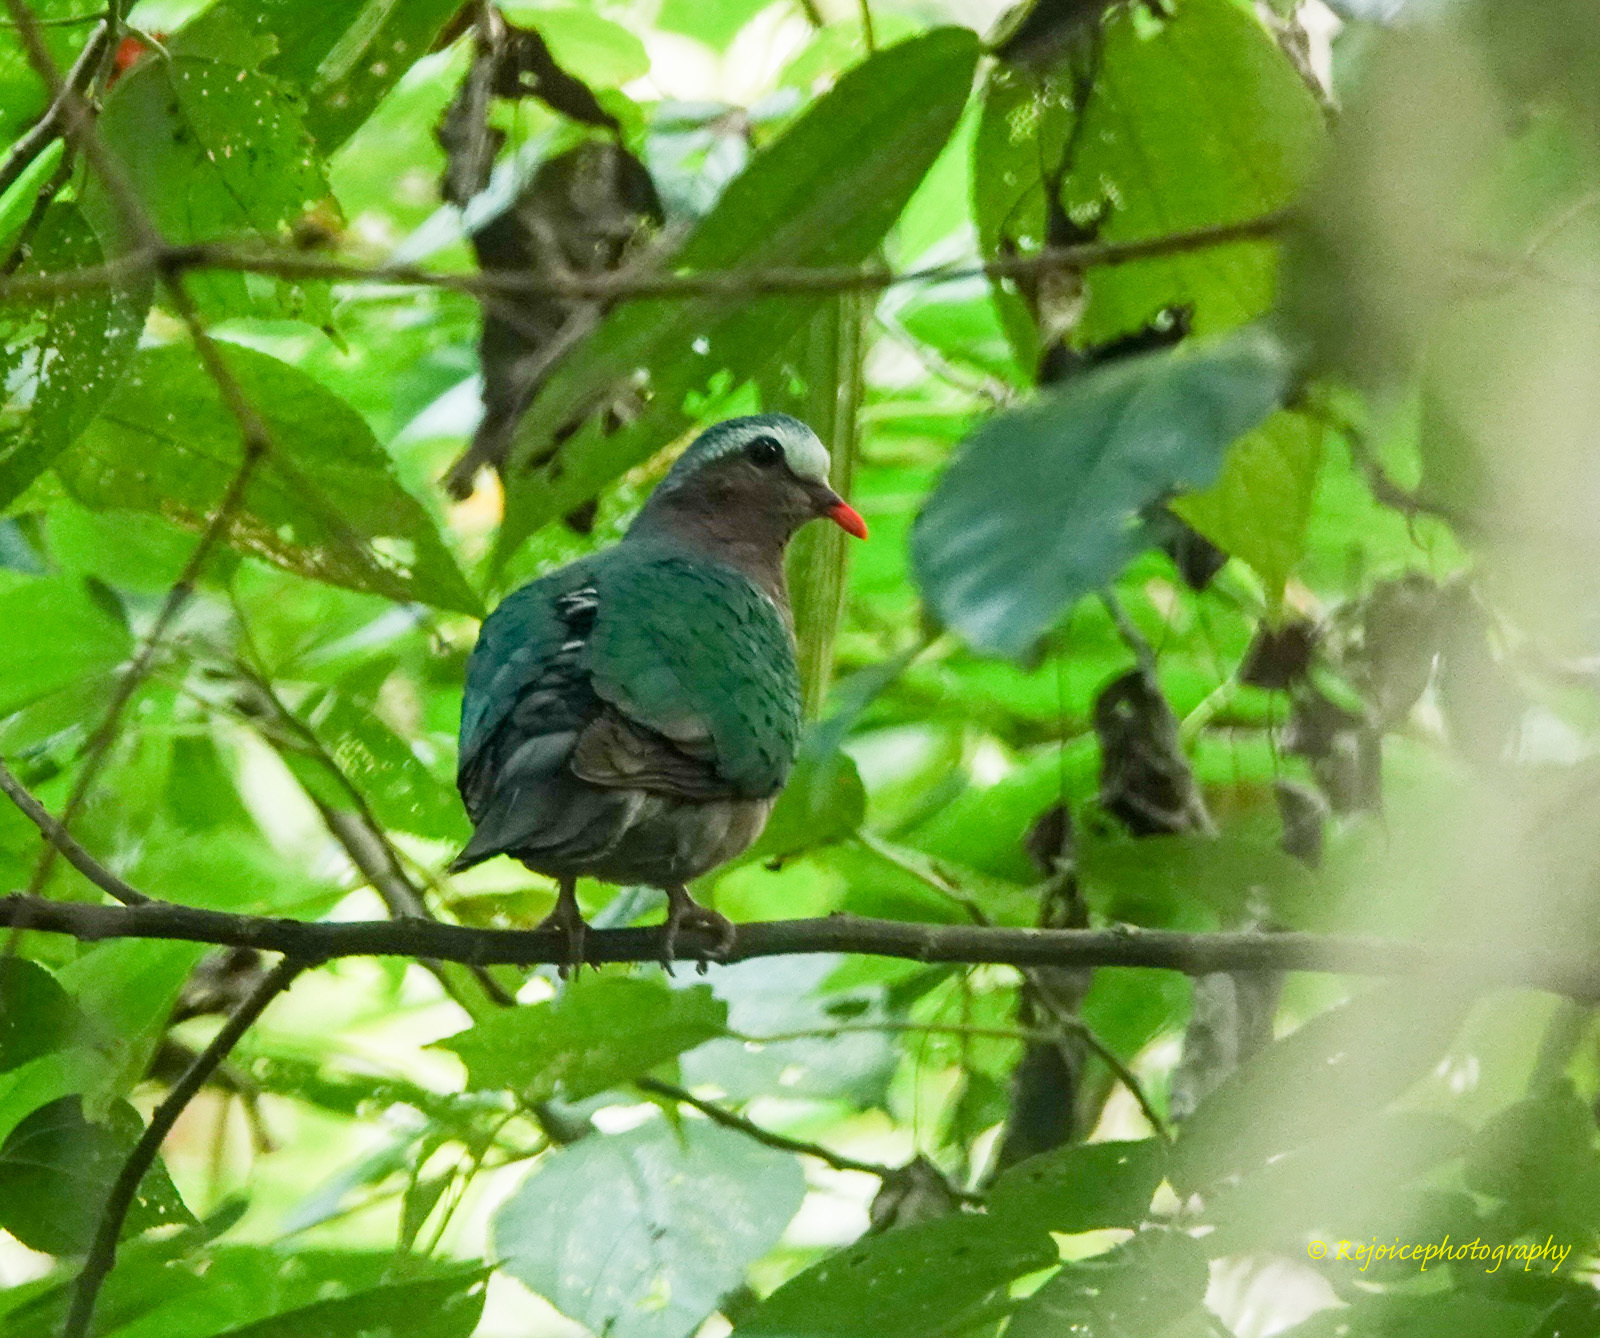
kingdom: Animalia
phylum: Chordata
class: Aves
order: Columbiformes
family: Columbidae
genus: Chalcophaps
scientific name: Chalcophaps indica
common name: Common emerald dove
